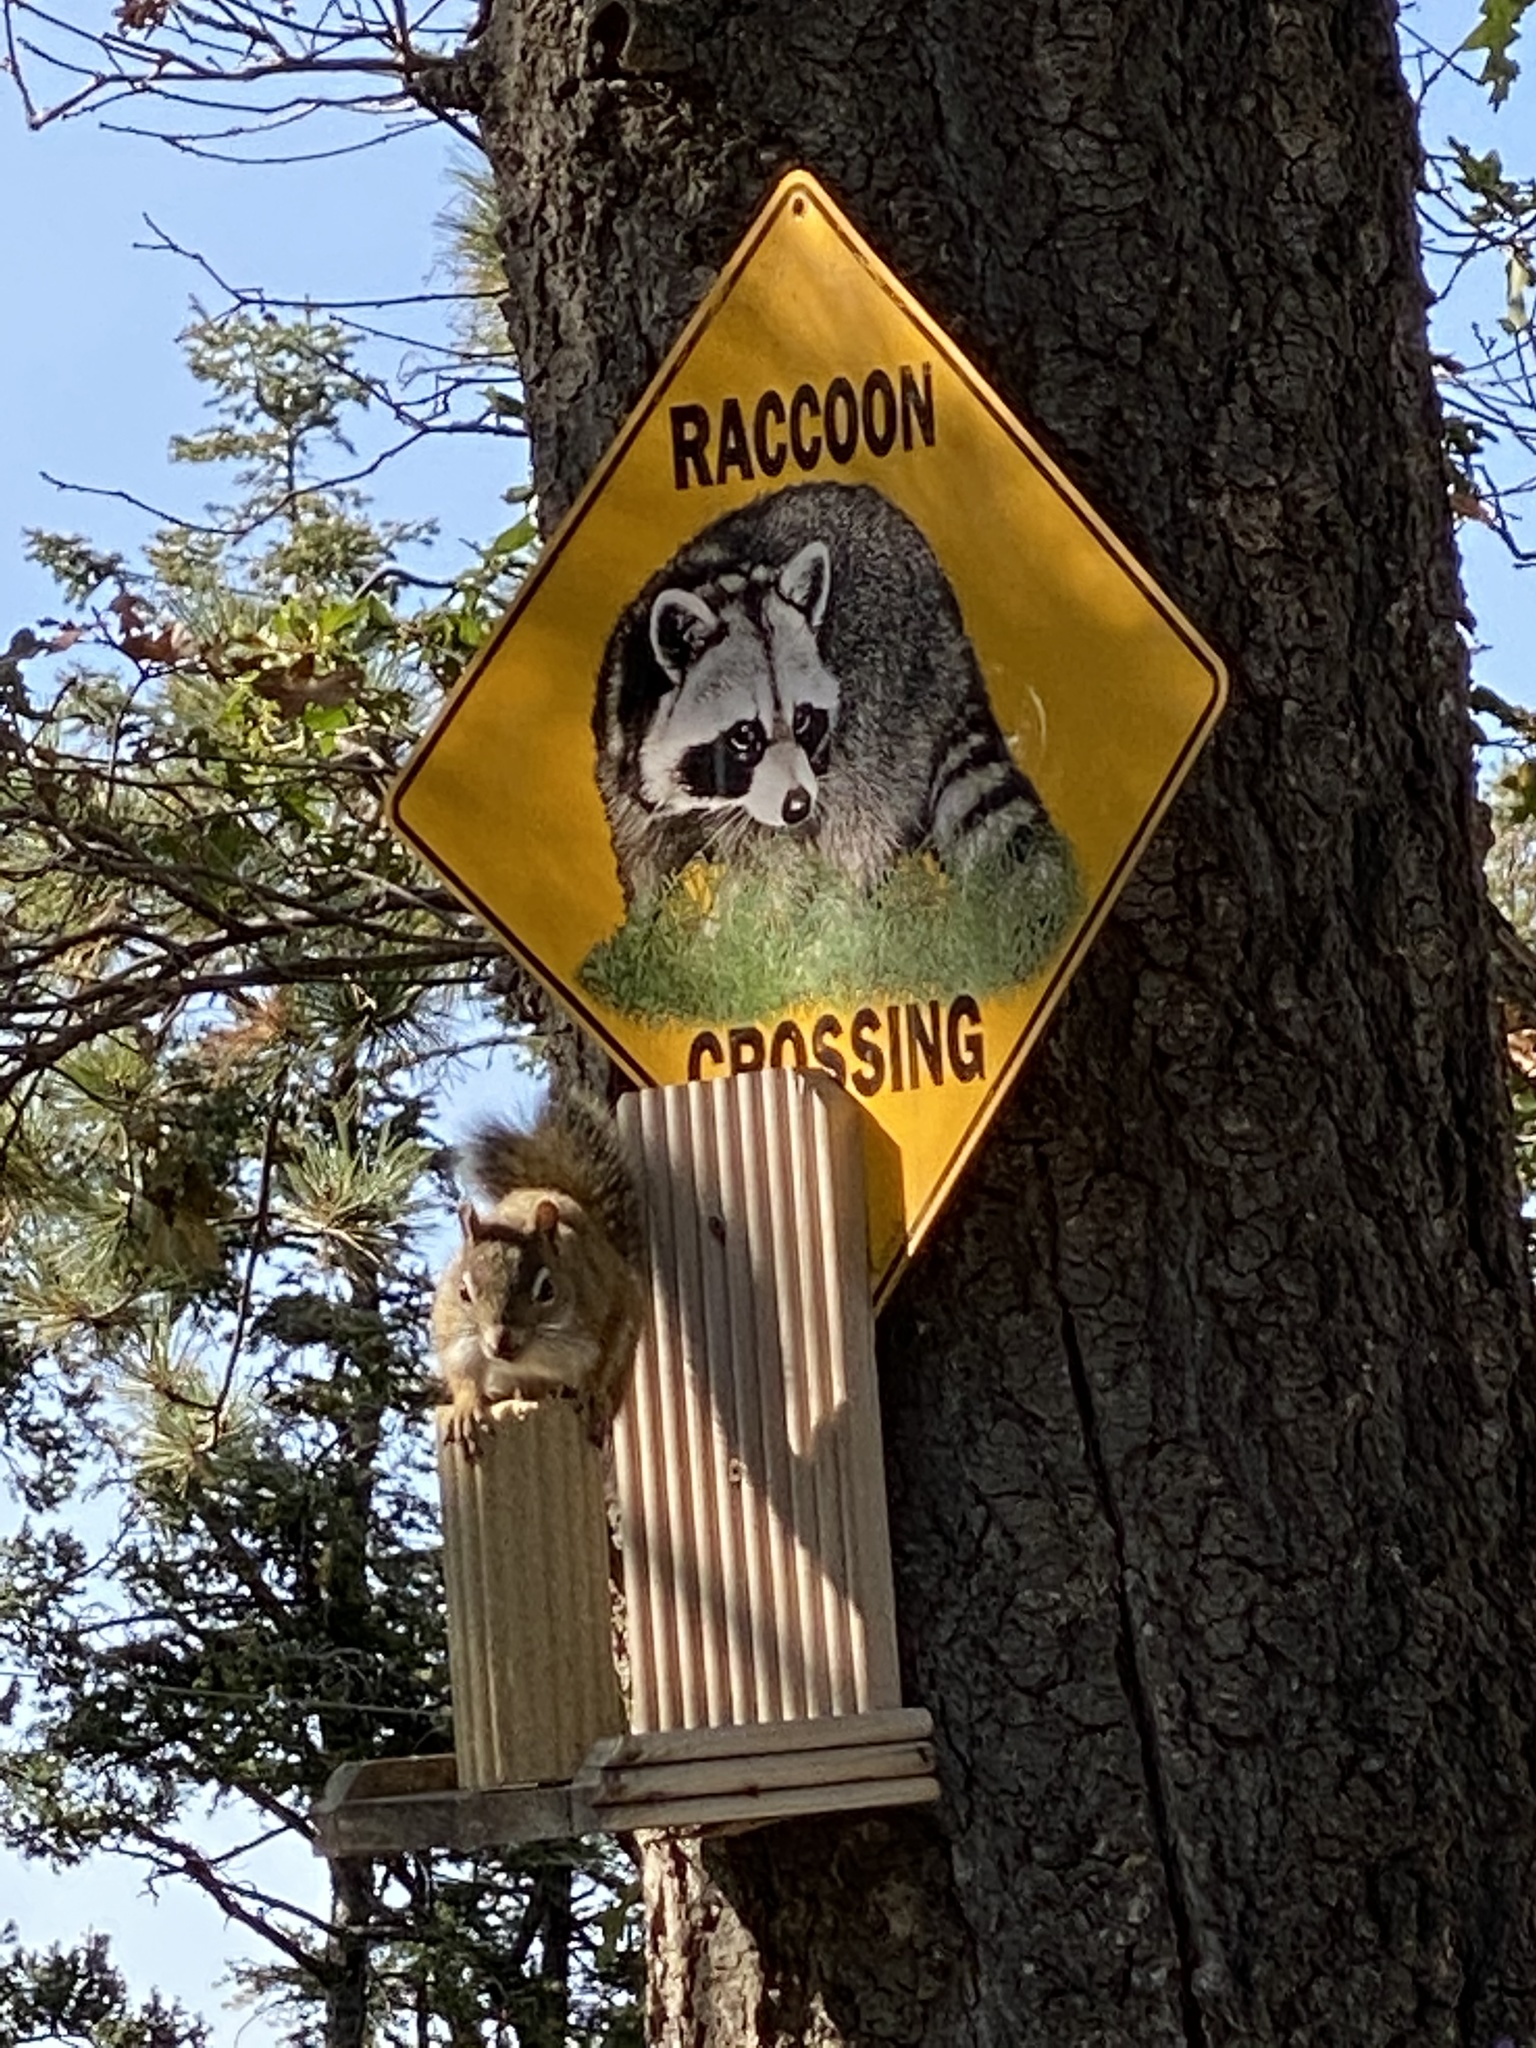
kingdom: Animalia
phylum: Chordata
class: Mammalia
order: Rodentia
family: Sciuridae
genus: Tamiasciurus
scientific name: Tamiasciurus hudsonicus
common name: Red squirrel
